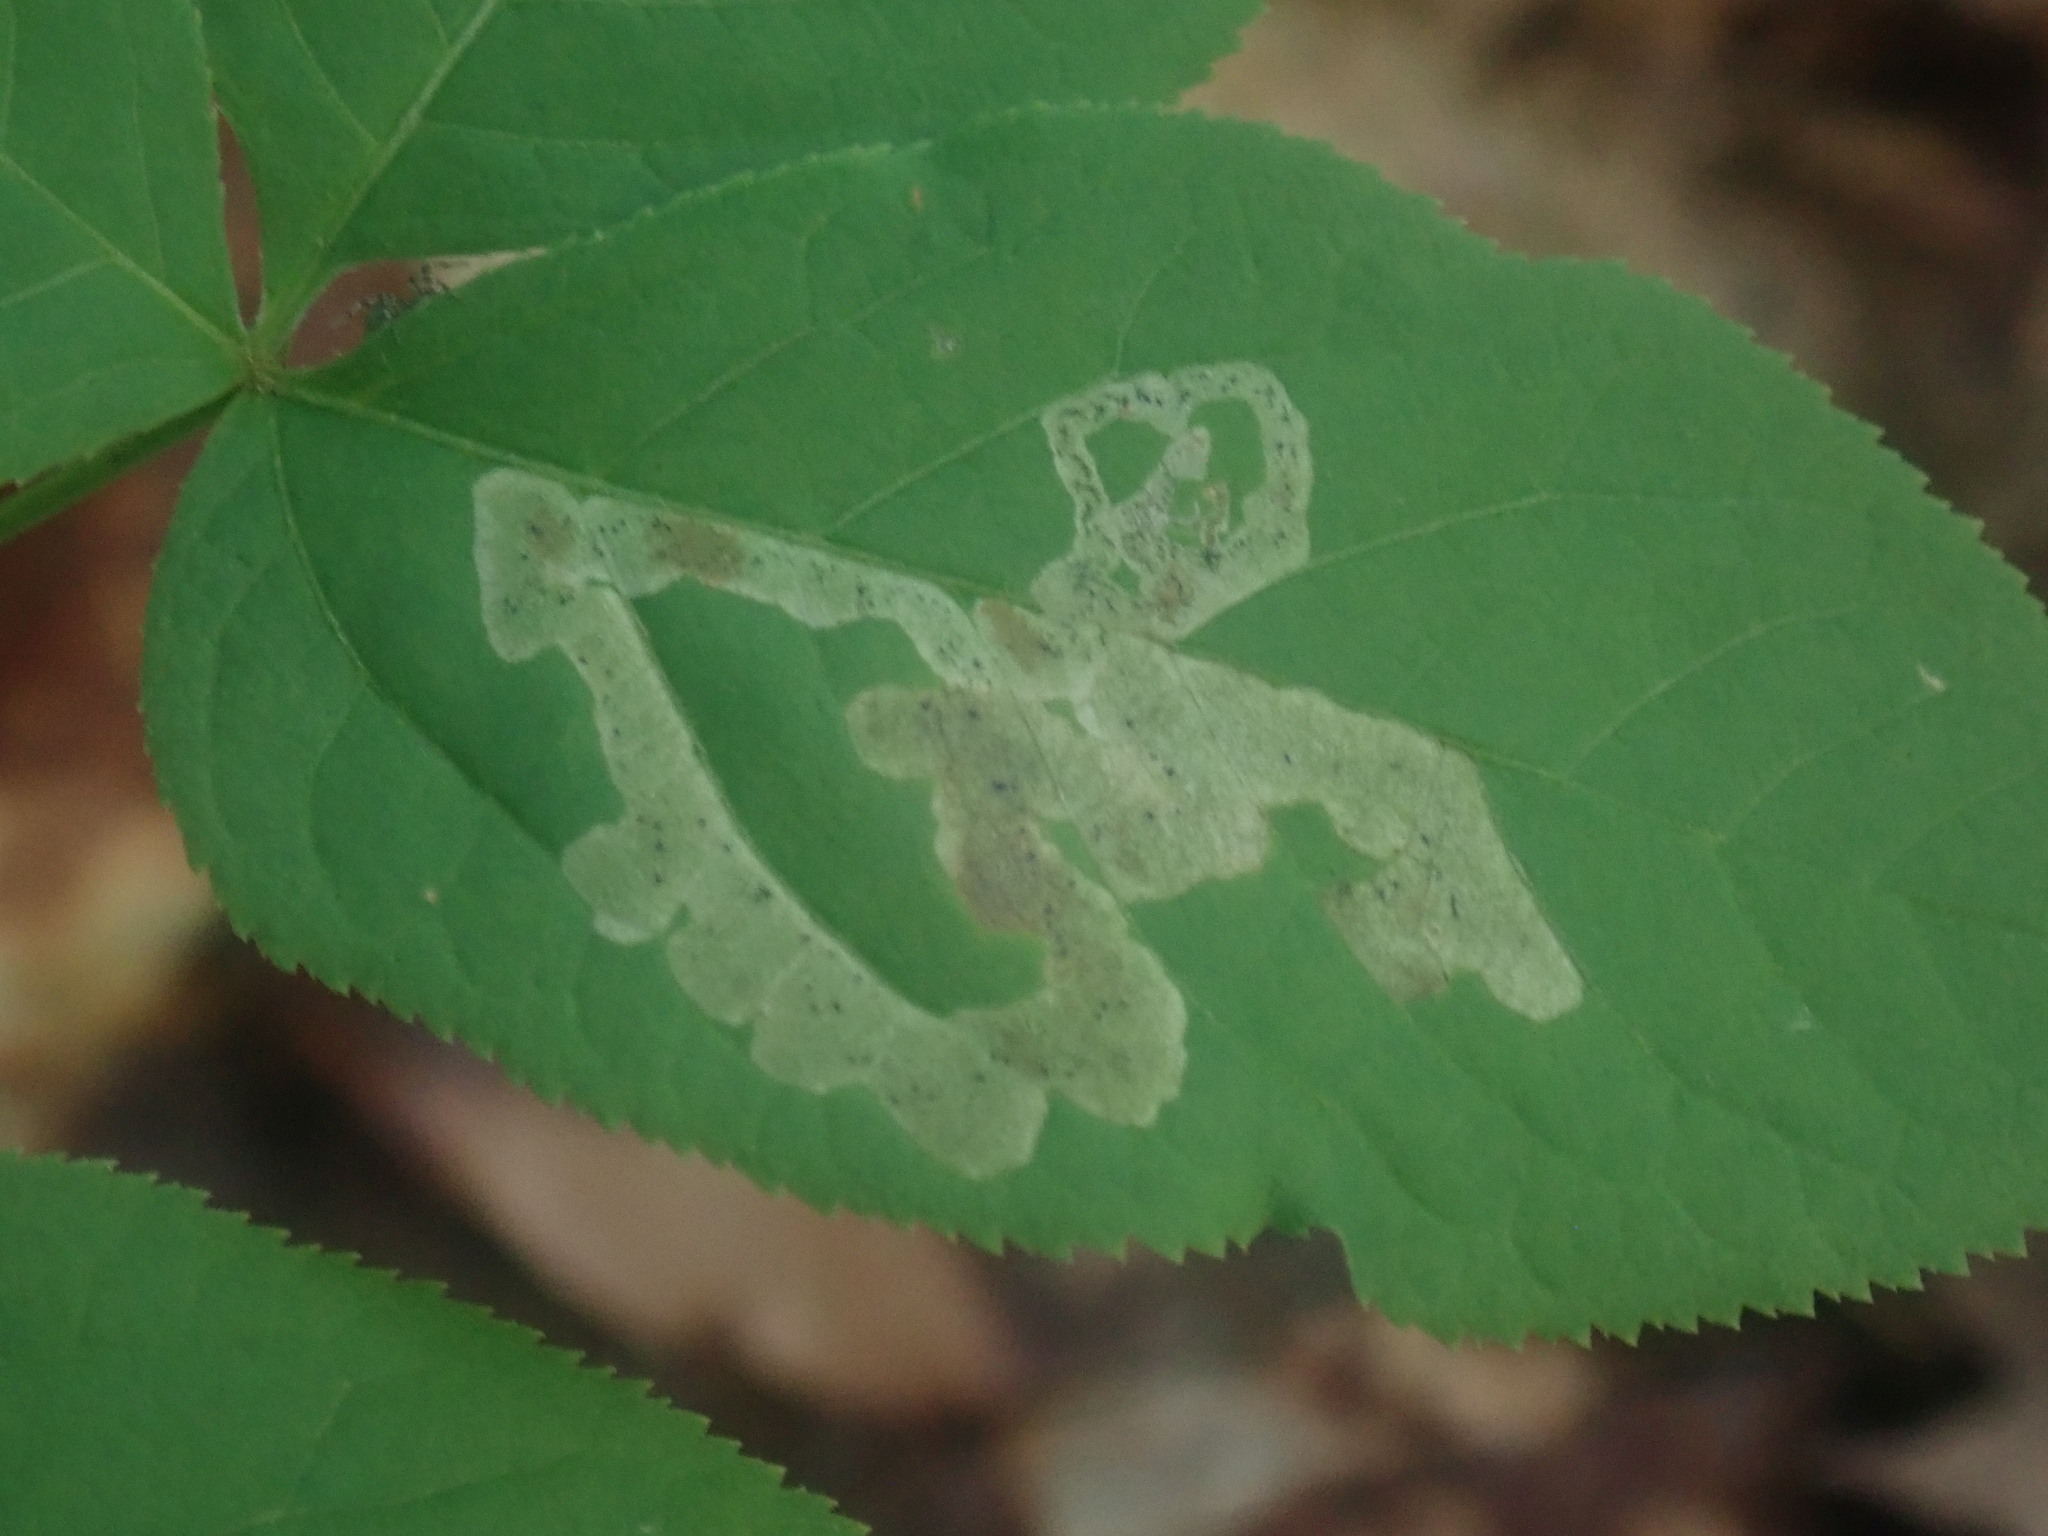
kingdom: Animalia
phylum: Arthropoda
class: Insecta
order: Diptera
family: Agromyzidae
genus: Phytomyza
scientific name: Phytomyza aralivora
